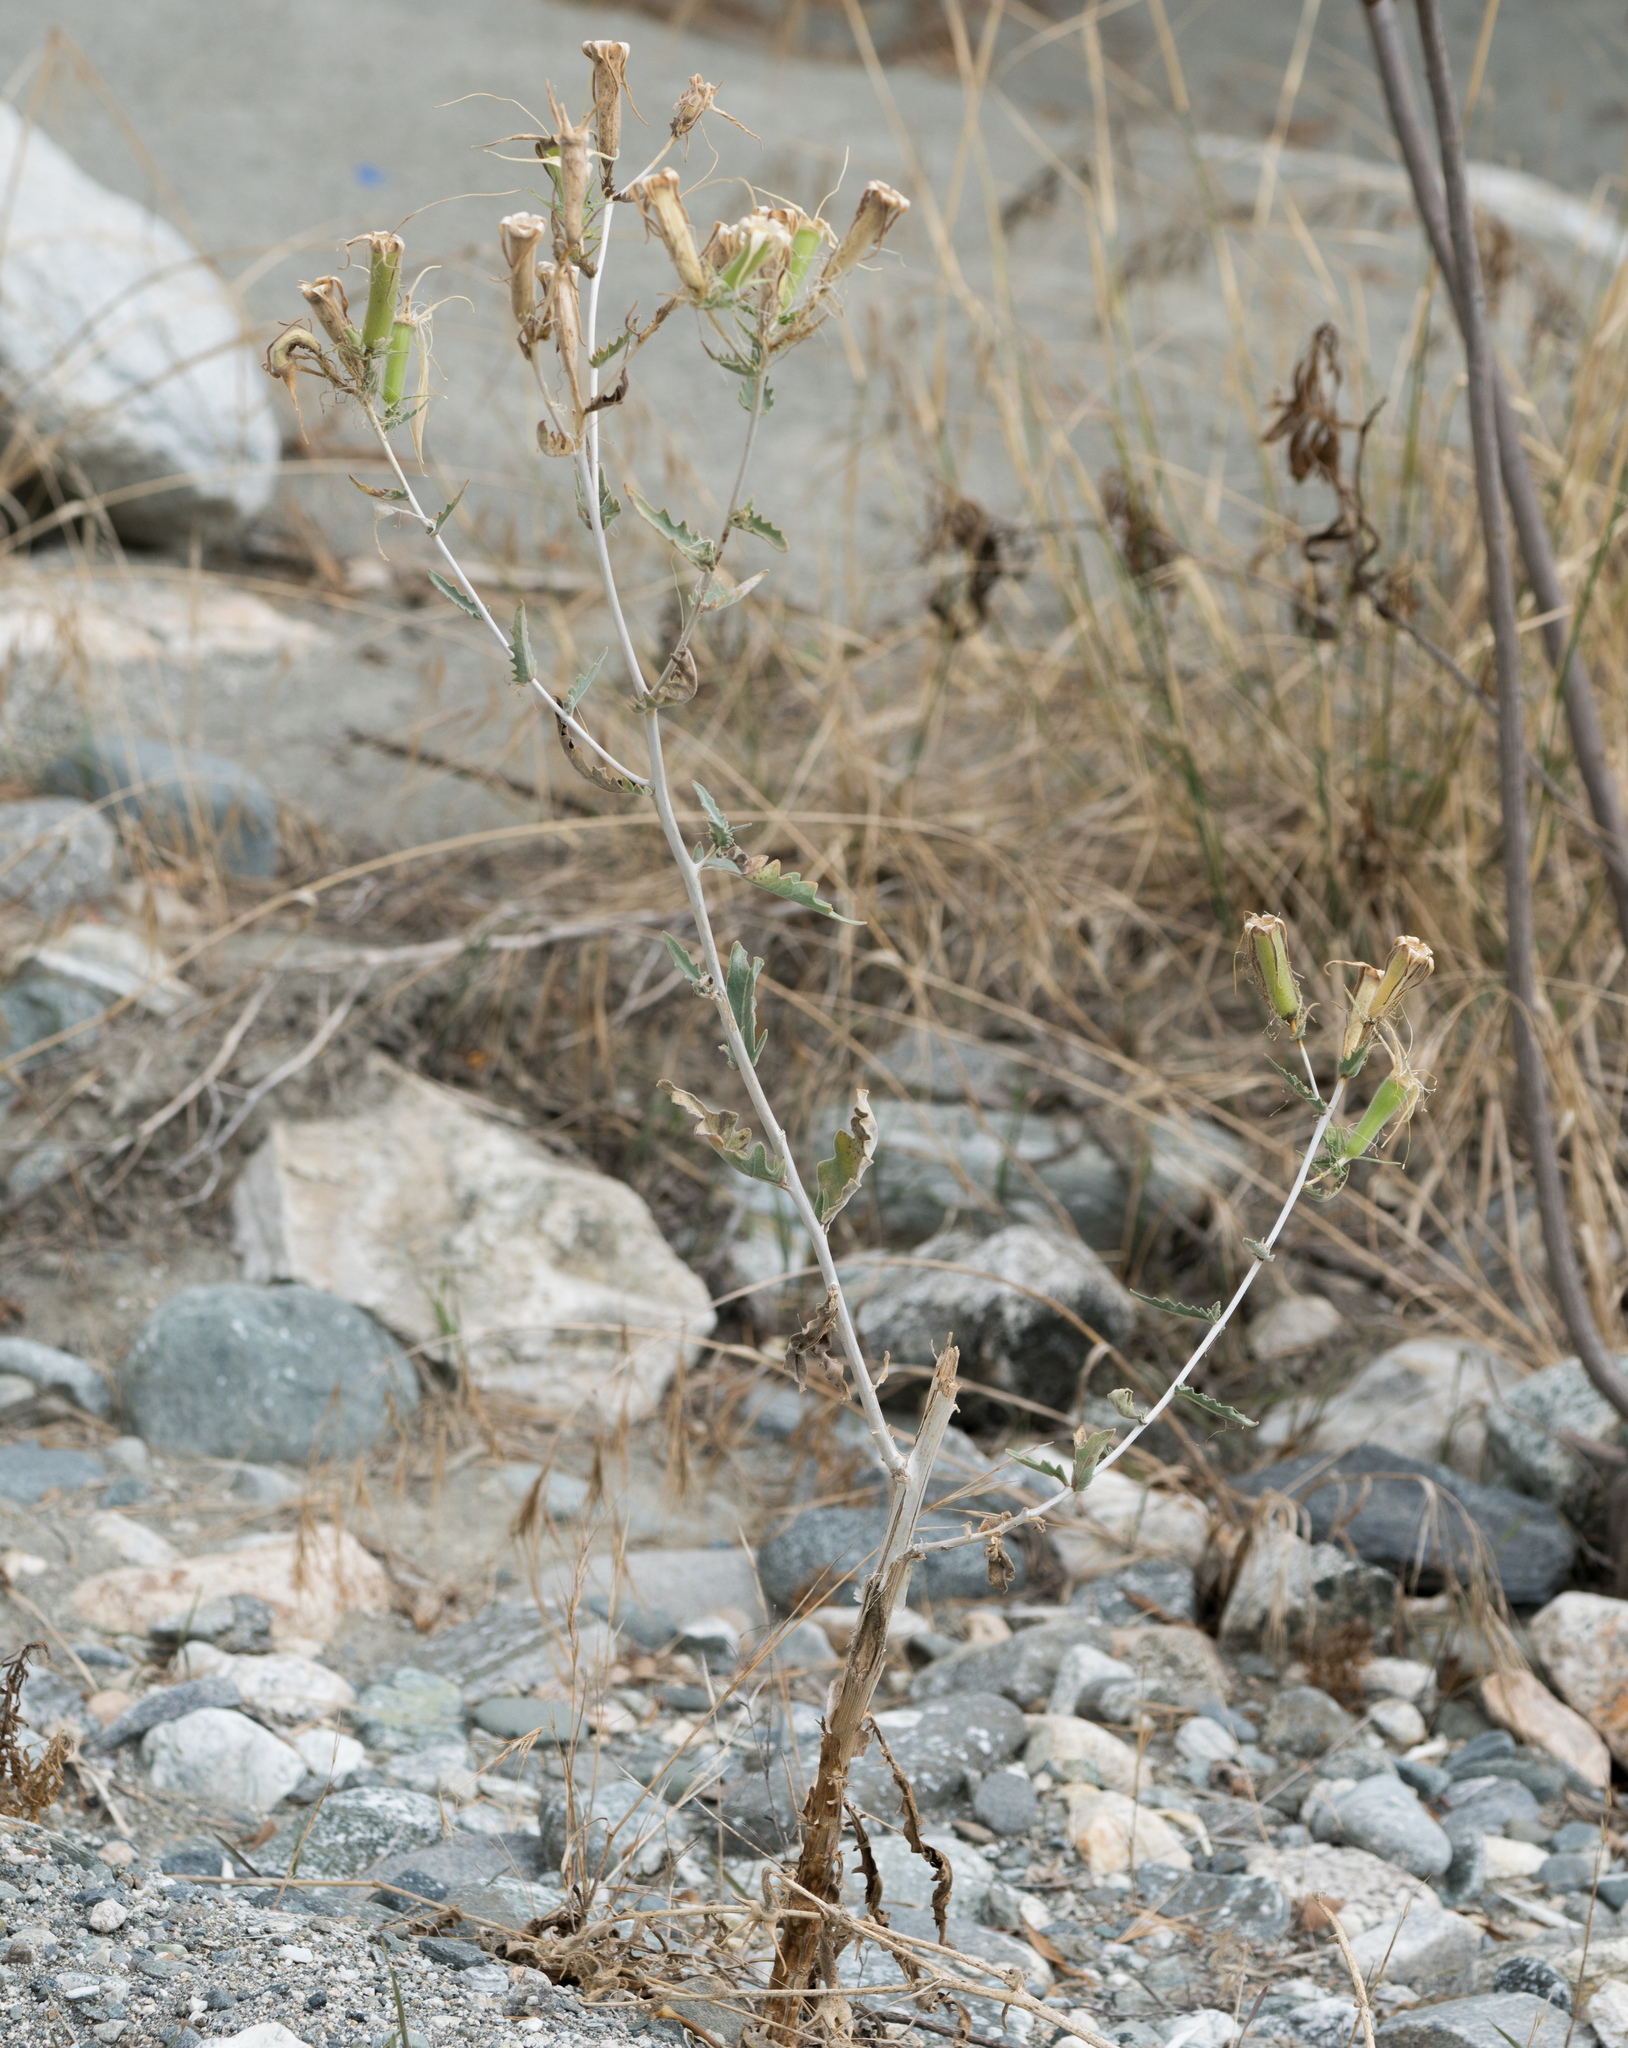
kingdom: Plantae
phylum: Tracheophyta
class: Magnoliopsida
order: Cornales
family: Loasaceae
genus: Mentzelia
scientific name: Mentzelia laevicaulis
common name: Smooth-stem blazingstar
